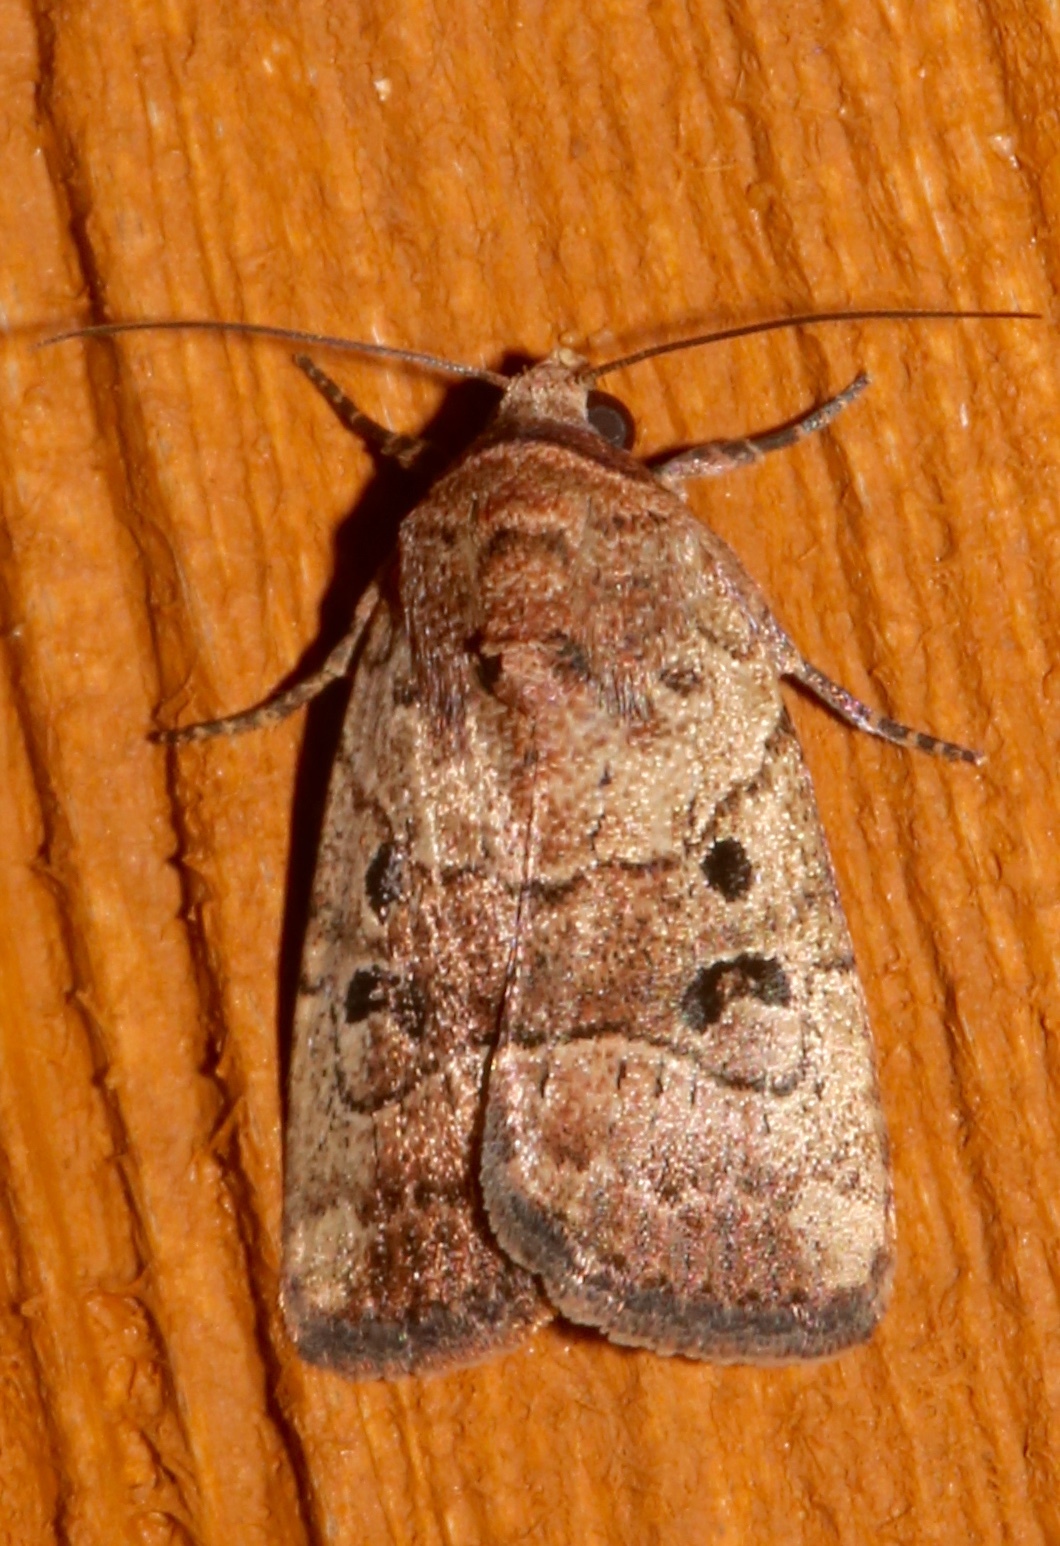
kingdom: Animalia
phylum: Arthropoda
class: Insecta
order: Lepidoptera
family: Noctuidae
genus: Elaphria
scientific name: Elaphria fuscimacula
